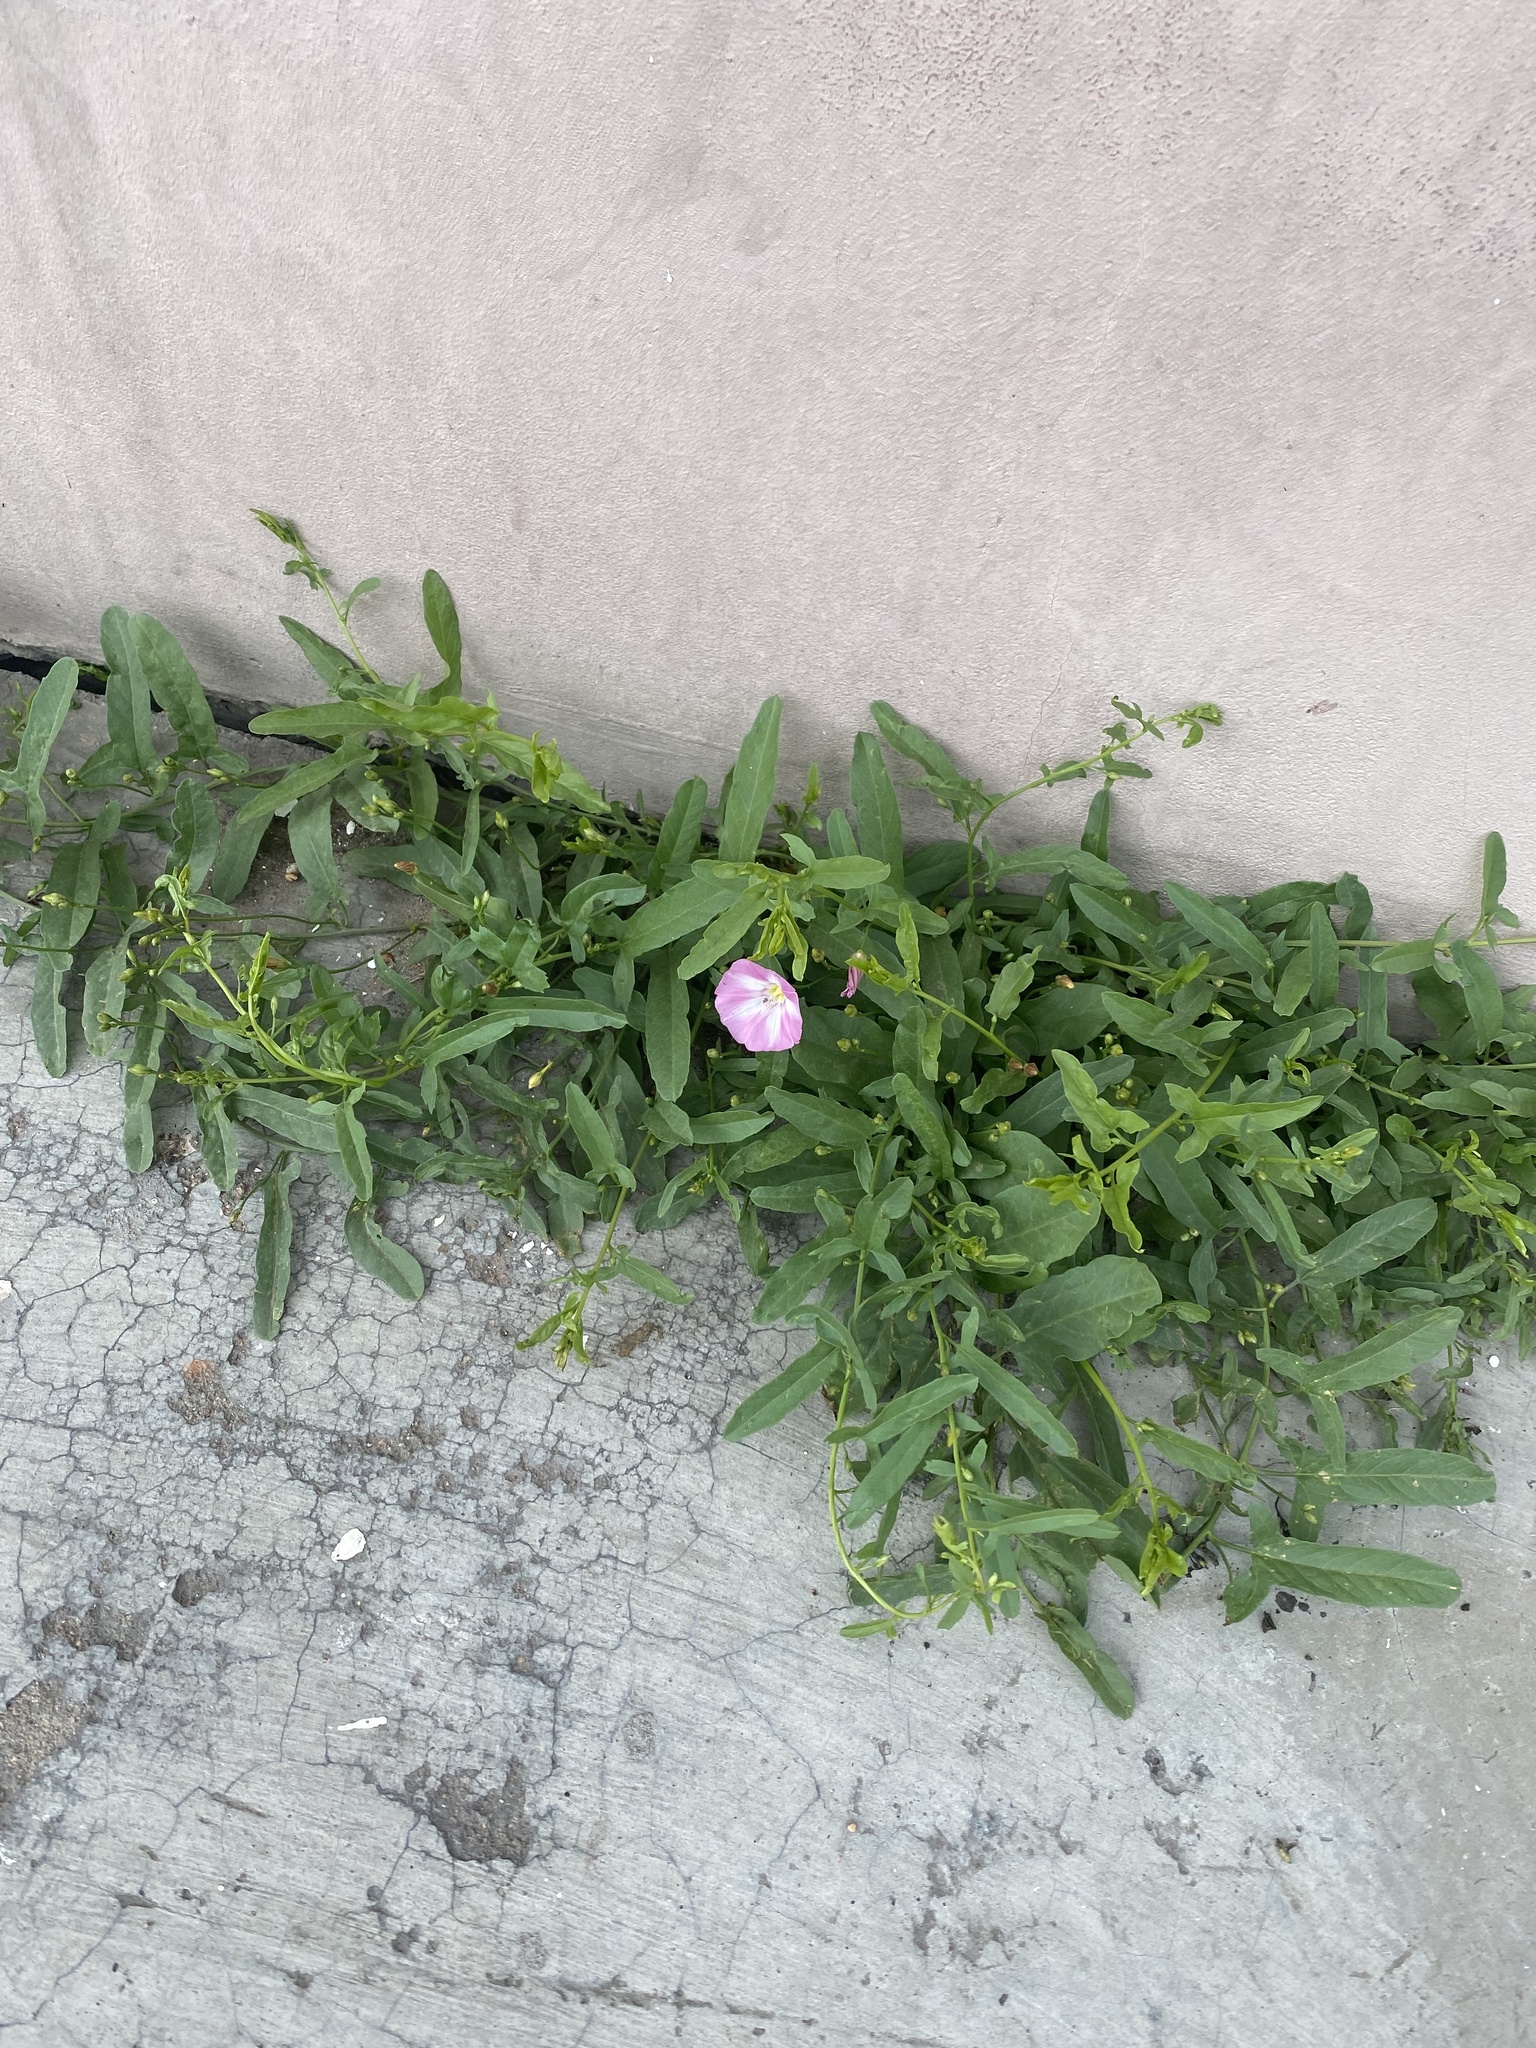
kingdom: Plantae
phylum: Tracheophyta
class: Magnoliopsida
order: Solanales
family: Convolvulaceae
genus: Convolvulus
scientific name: Convolvulus chinensis
